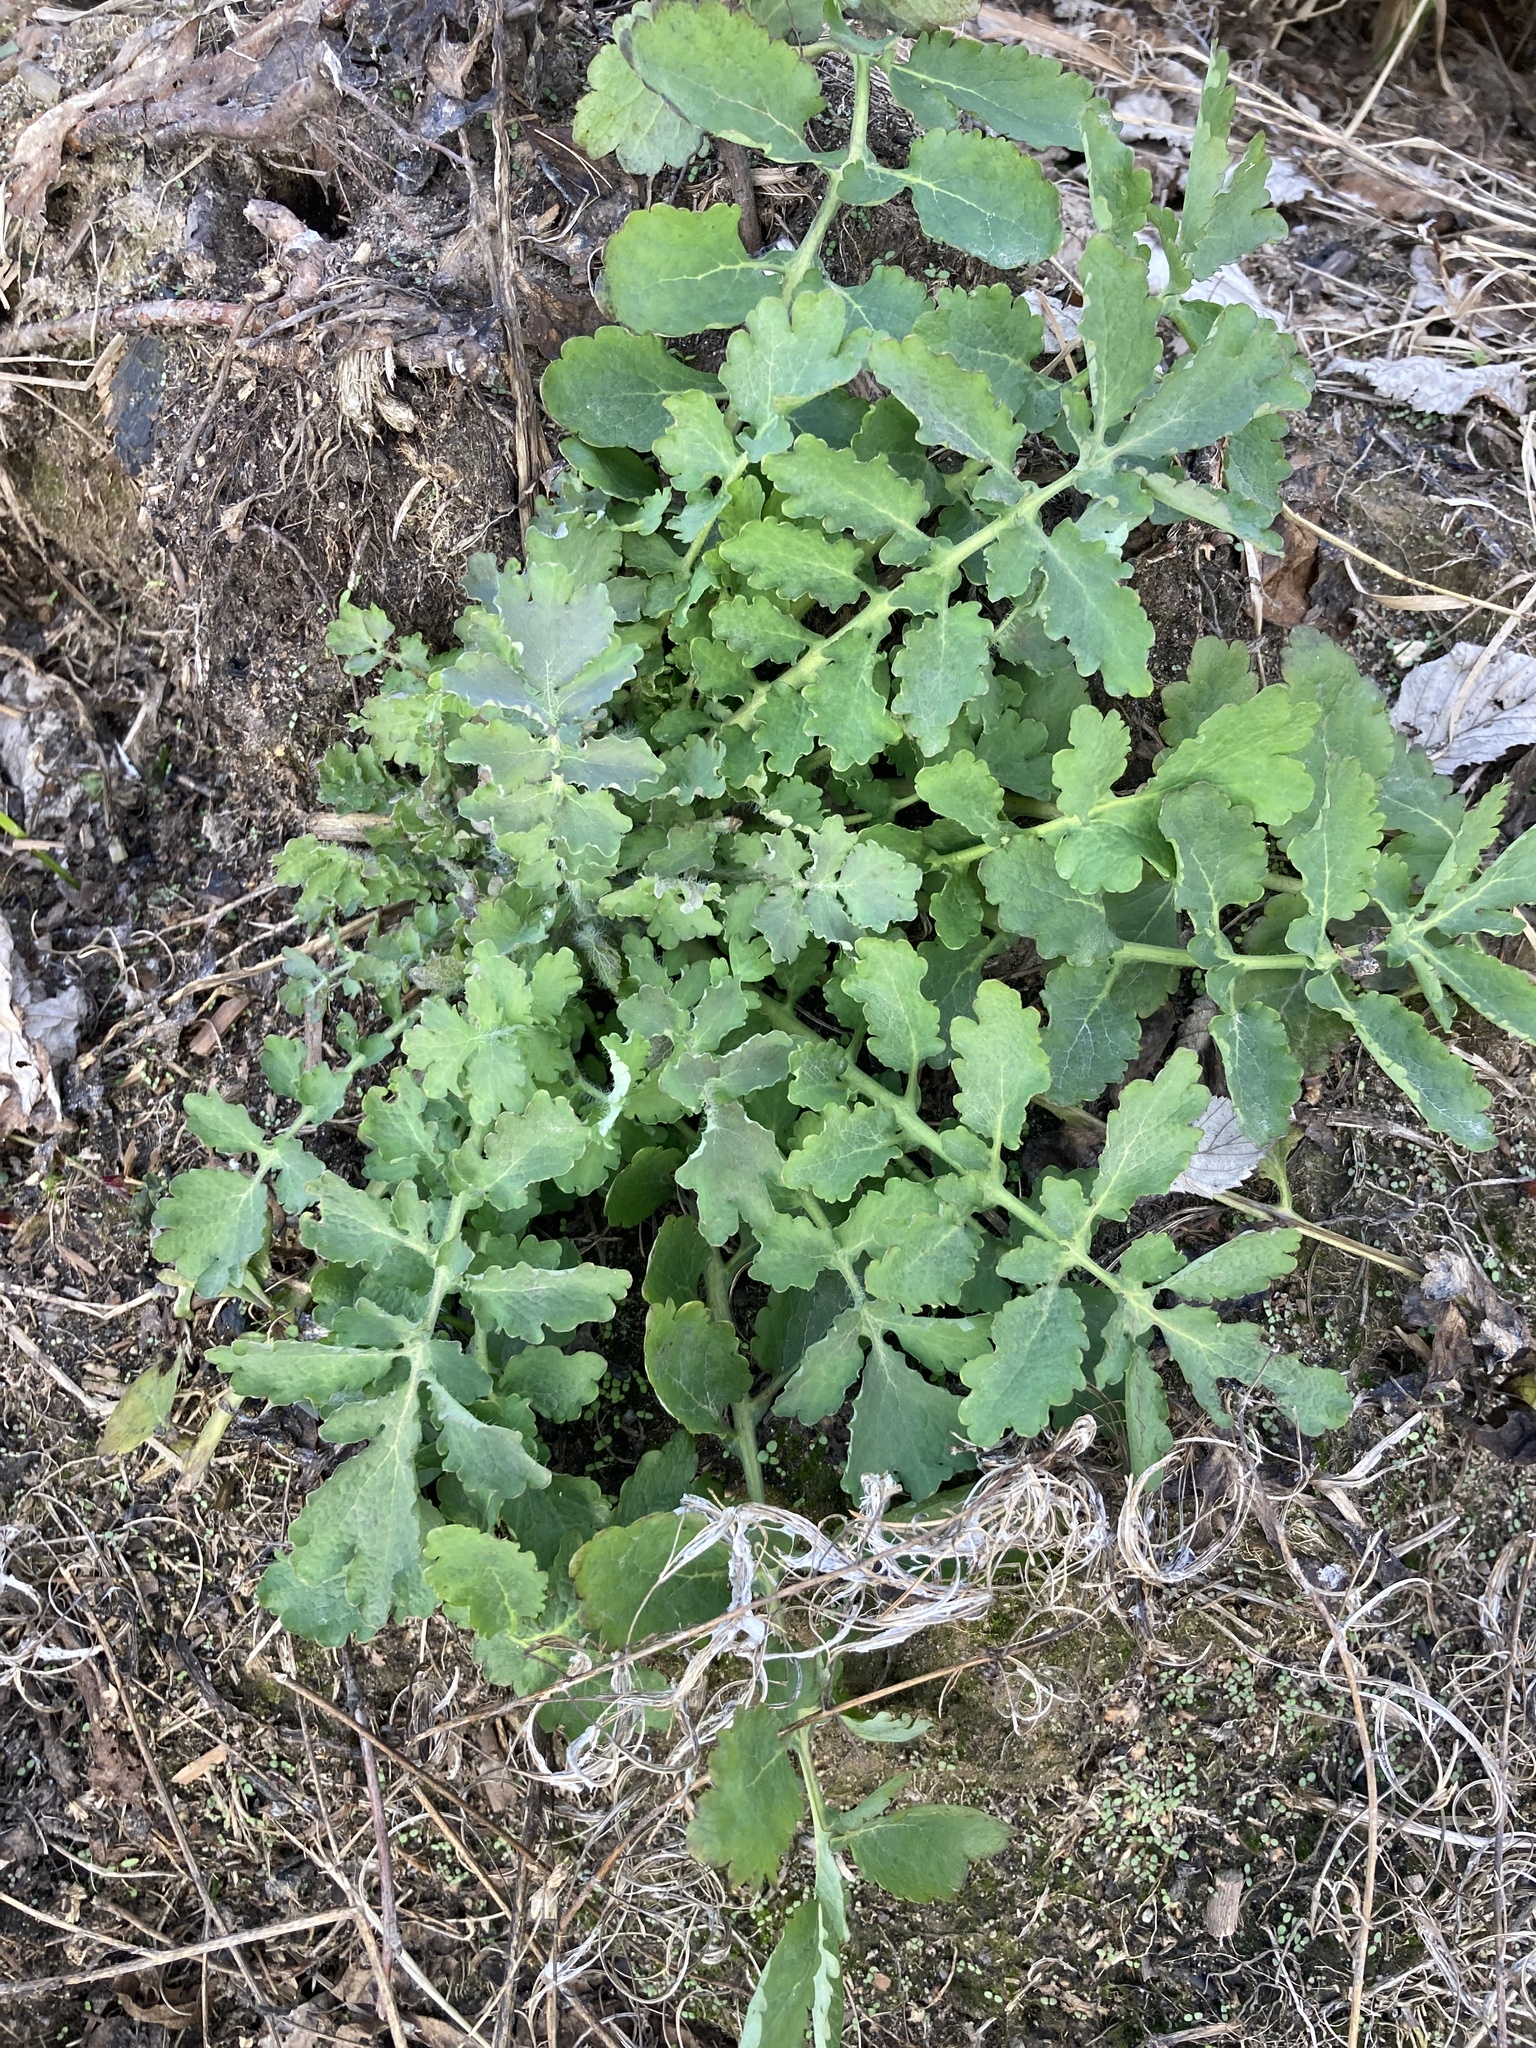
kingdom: Plantae
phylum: Tracheophyta
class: Magnoliopsida
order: Ranunculales
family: Papaveraceae
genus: Chelidonium
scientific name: Chelidonium majus
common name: Greater celandine
